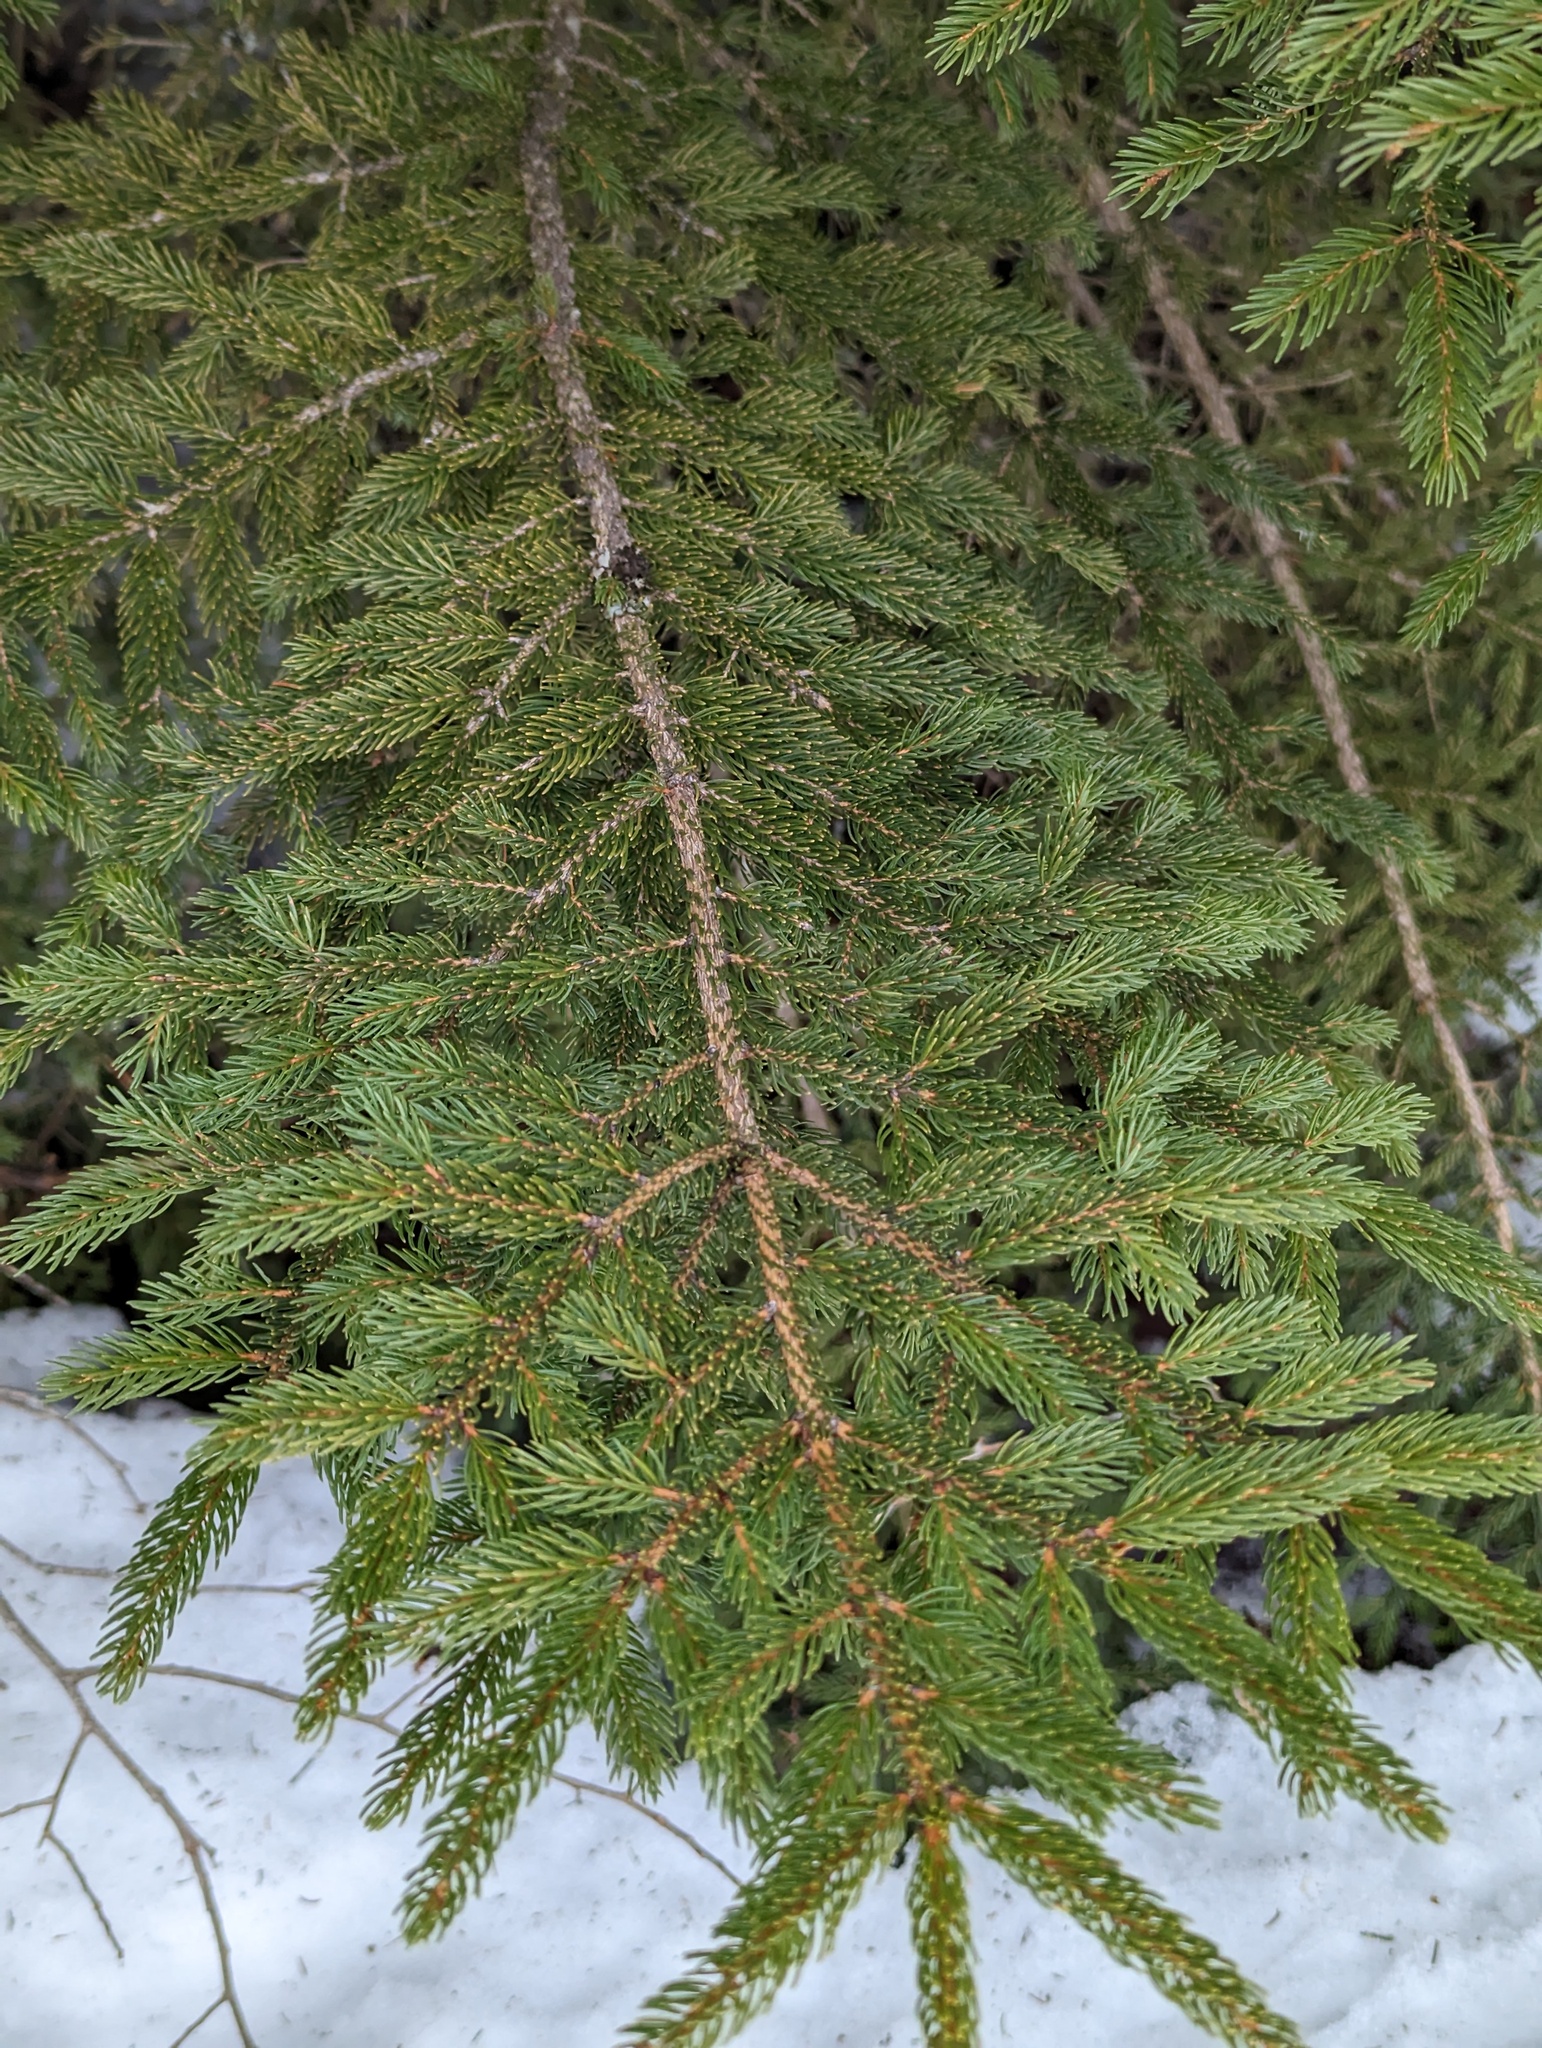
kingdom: Plantae
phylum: Tracheophyta
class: Pinopsida
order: Pinales
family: Pinaceae
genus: Picea
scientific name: Picea rubens
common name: Red spruce
